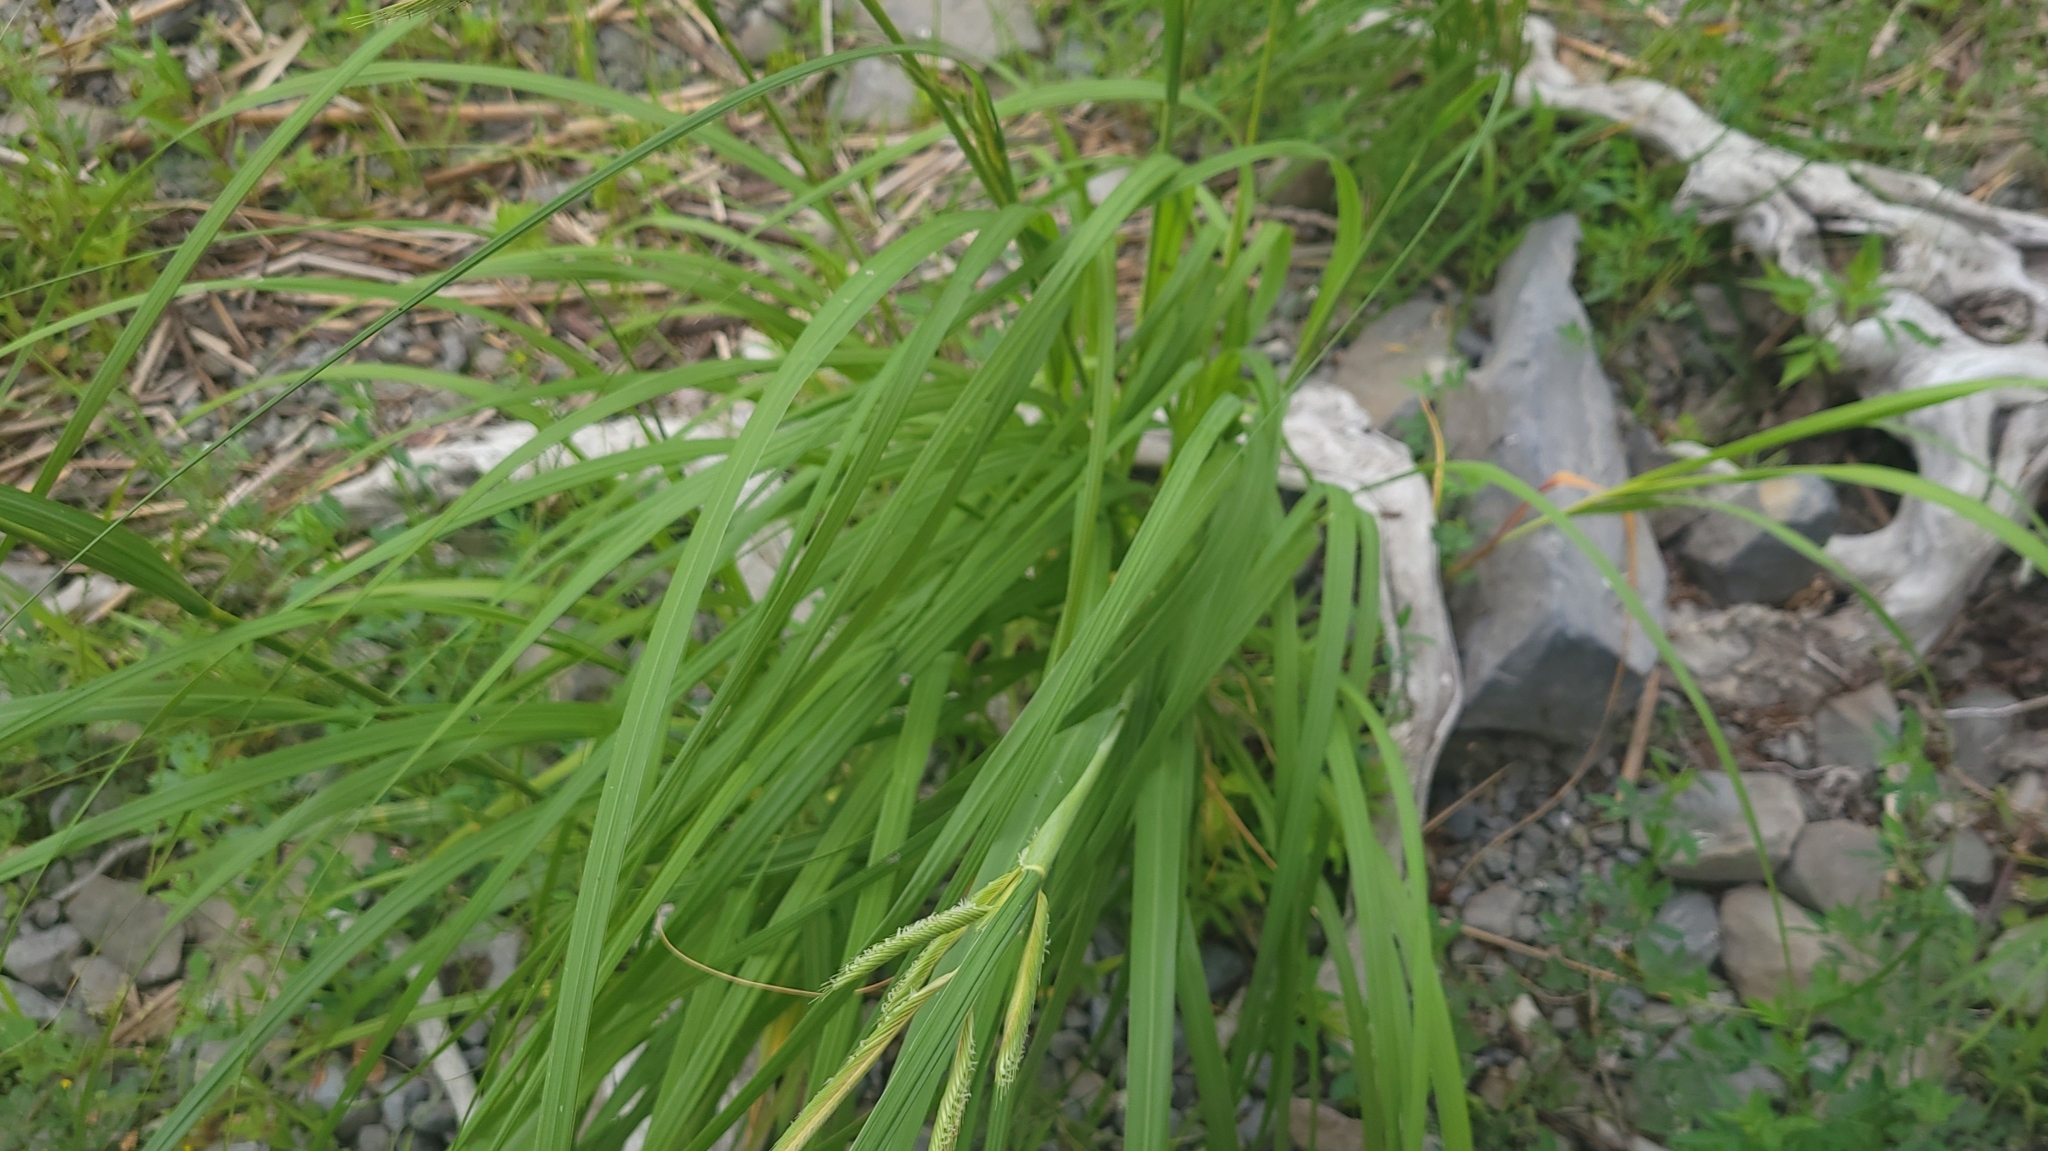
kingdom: Plantae
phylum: Tracheophyta
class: Liliopsida
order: Poales
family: Poaceae
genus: Sporobolus
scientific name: Sporobolus michauxianus
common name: Freshwater cordgrass
